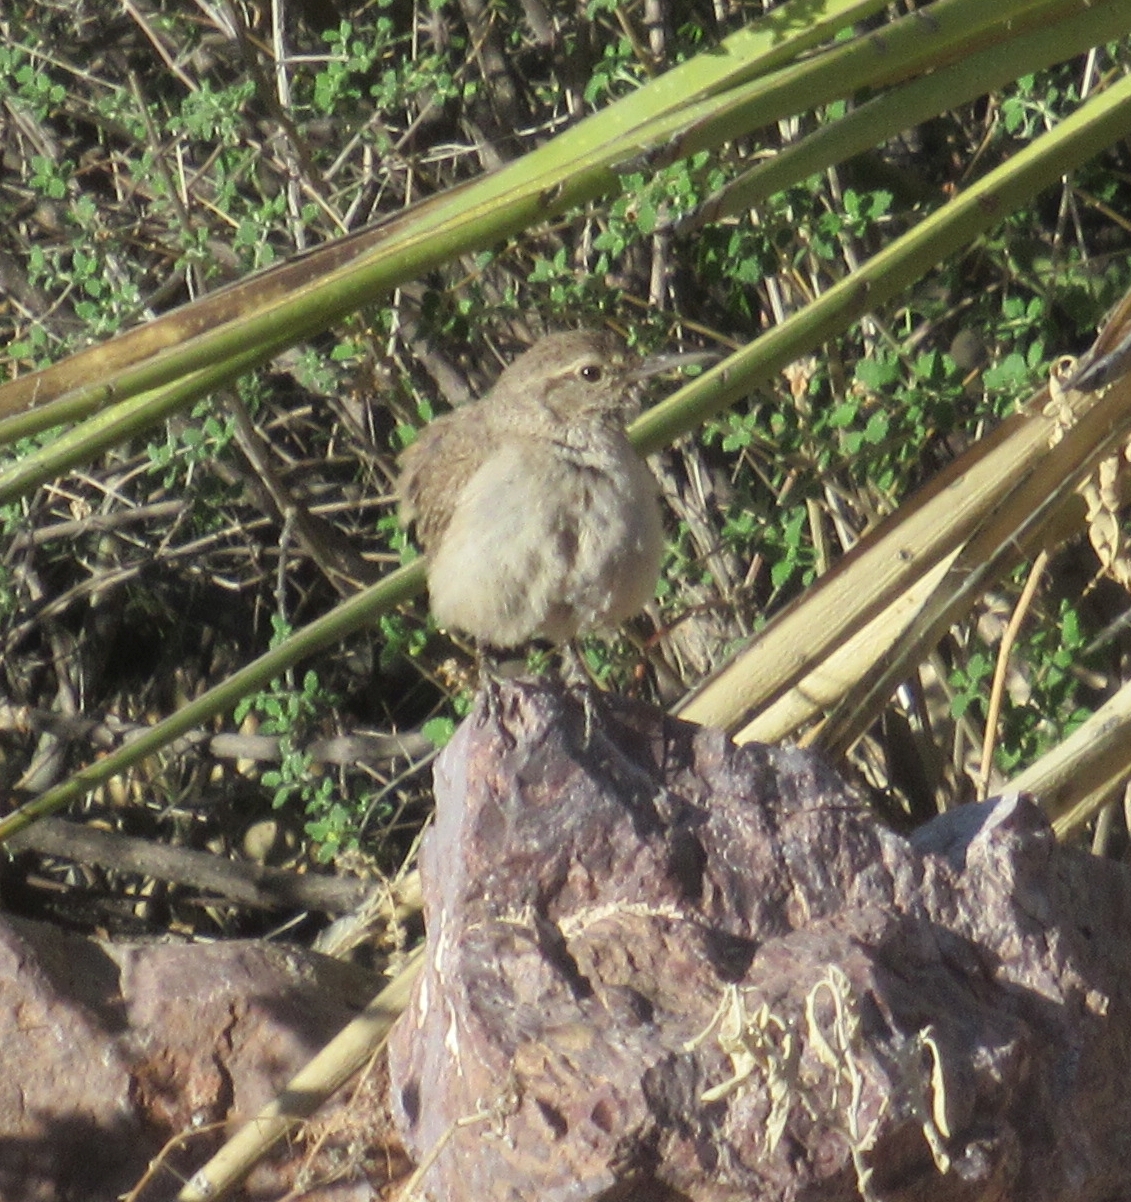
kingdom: Animalia
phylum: Chordata
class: Aves
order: Passeriformes
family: Troglodytidae
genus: Salpinctes
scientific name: Salpinctes obsoletus
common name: Rock wren
